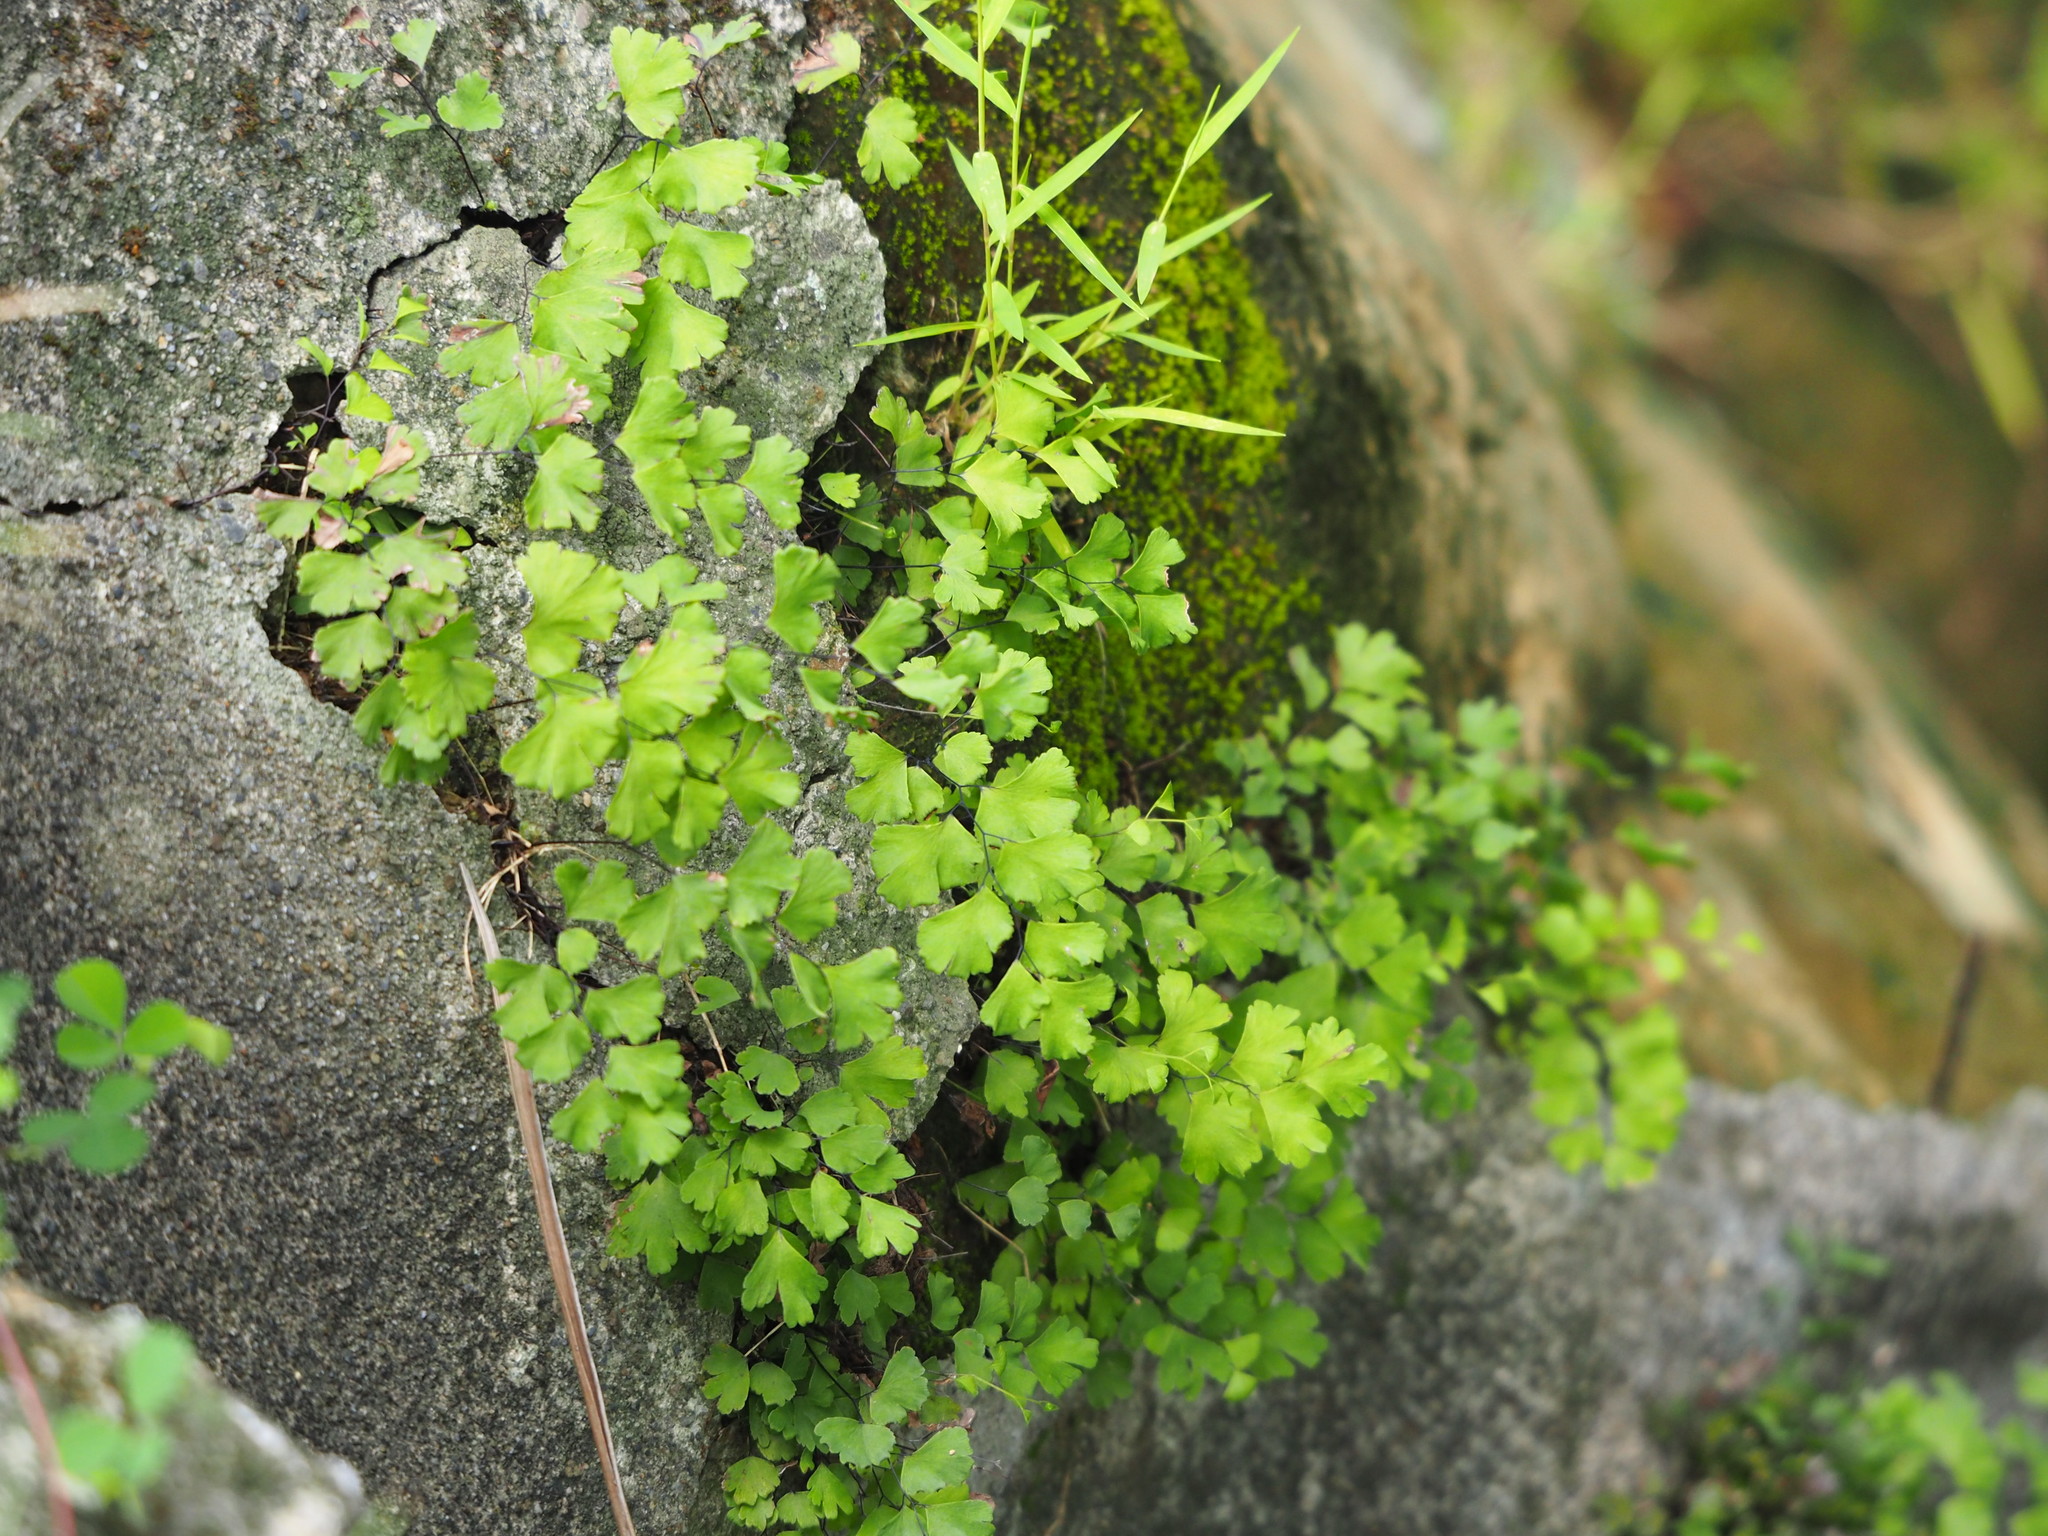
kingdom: Plantae
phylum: Tracheophyta
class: Polypodiopsida
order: Polypodiales
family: Pteridaceae
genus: Adiantum
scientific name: Adiantum capillus-veneris
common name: Maidenhair fern
